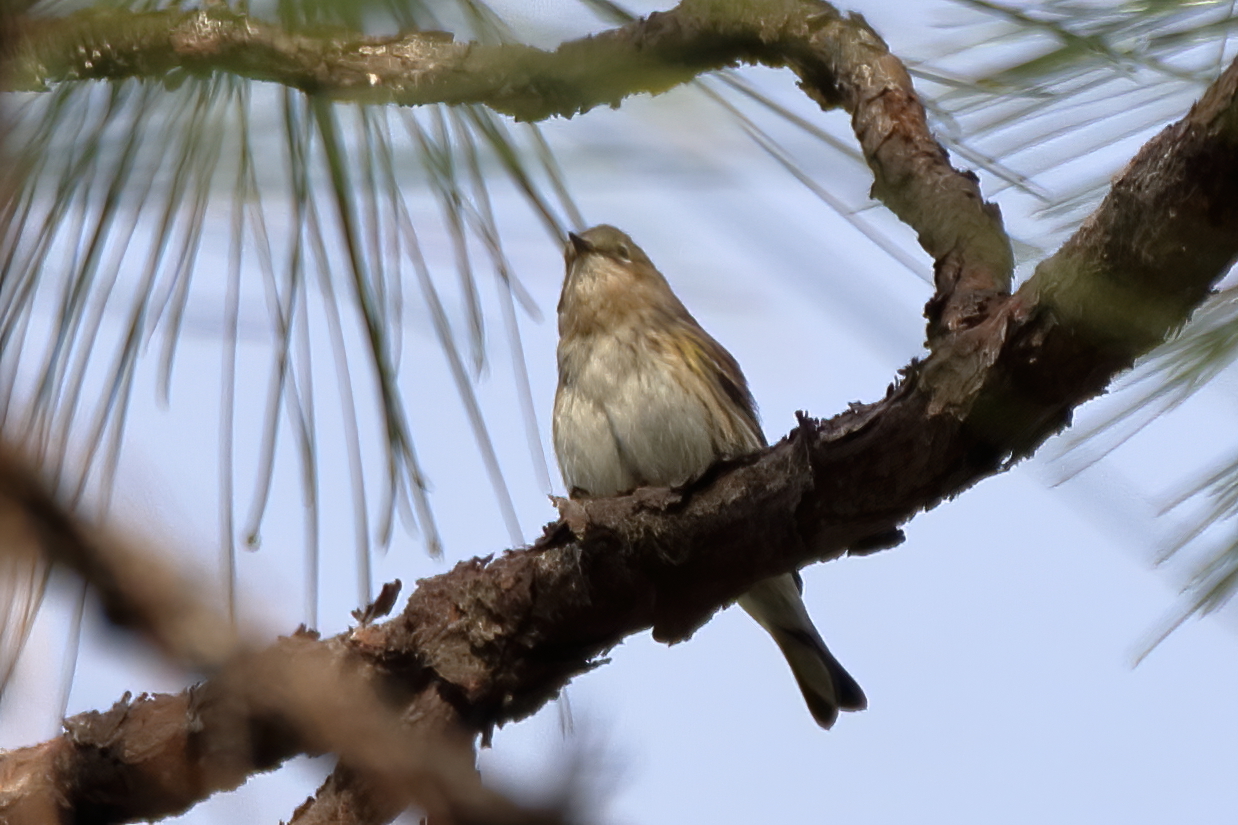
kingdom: Animalia
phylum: Chordata
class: Aves
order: Passeriformes
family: Parulidae
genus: Setophaga
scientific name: Setophaga coronata
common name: Myrtle warbler
